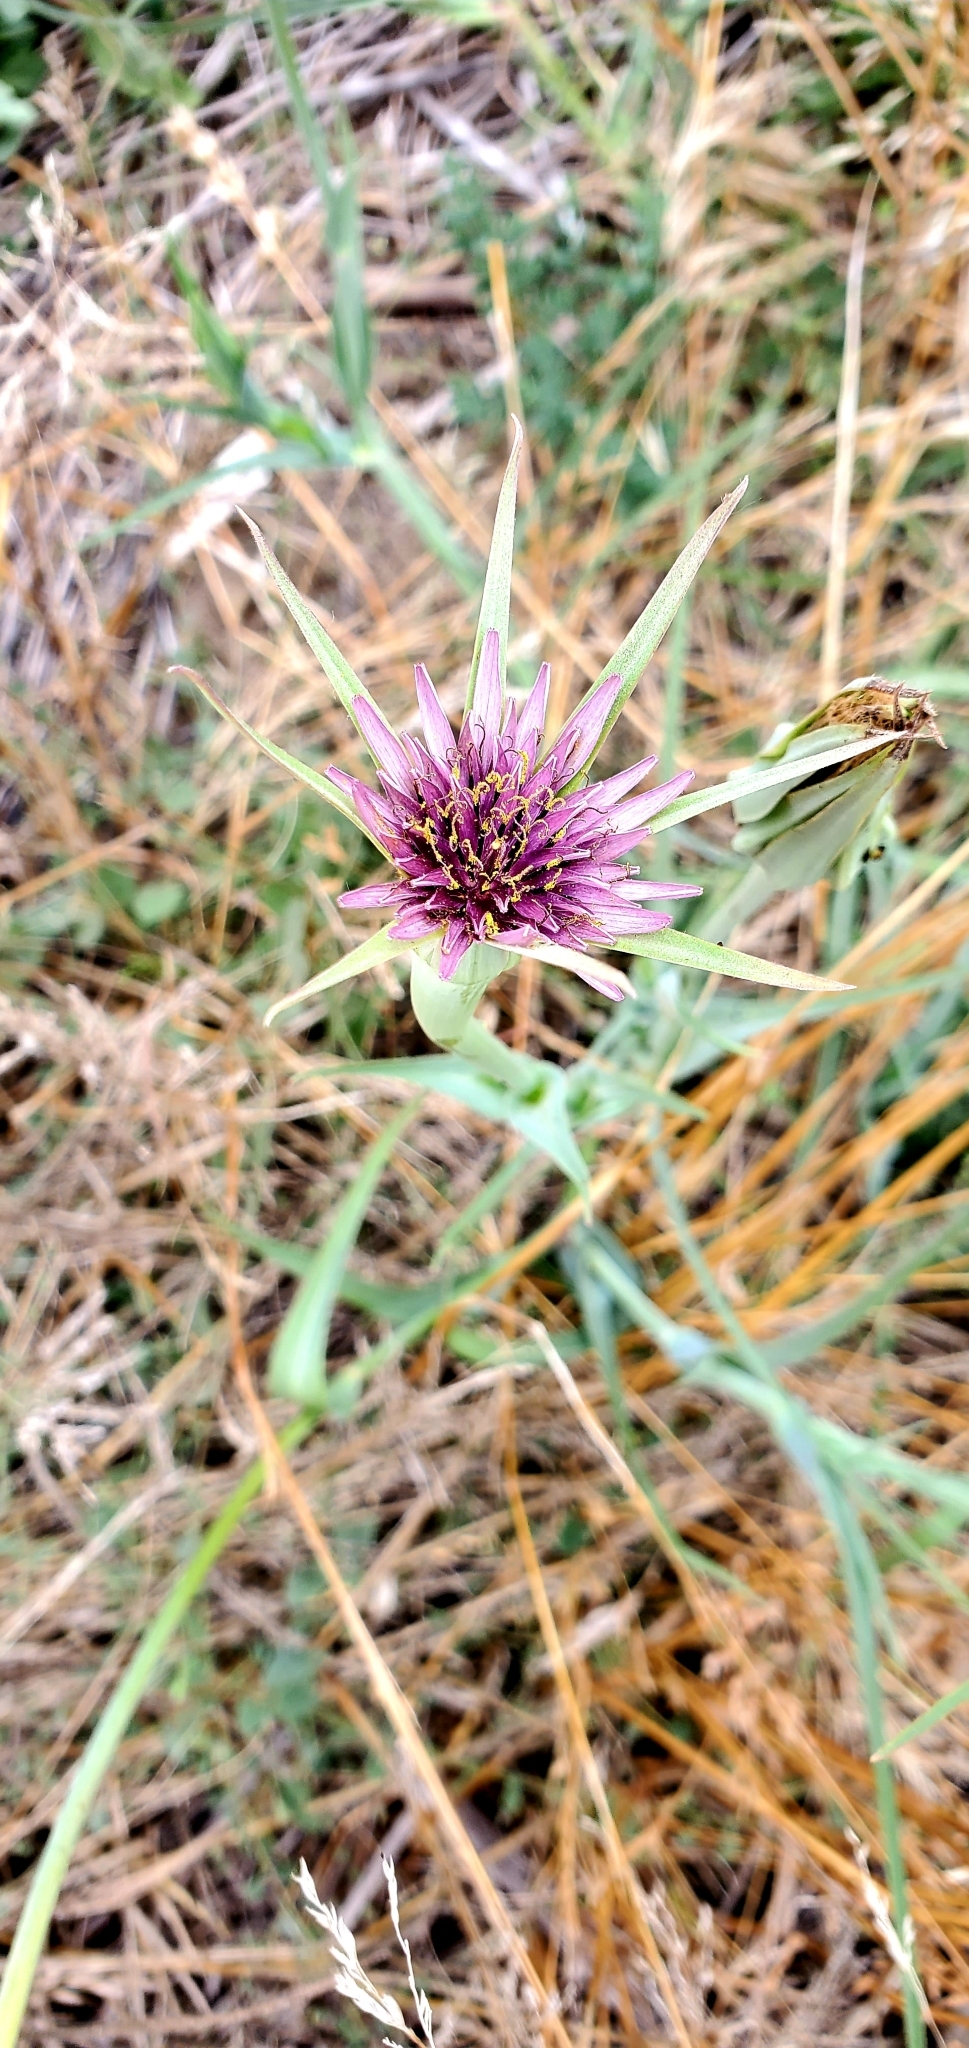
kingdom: Plantae
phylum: Tracheophyta
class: Magnoliopsida
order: Asterales
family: Asteraceae
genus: Tragopogon
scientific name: Tragopogon porrifolius
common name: Salsify
